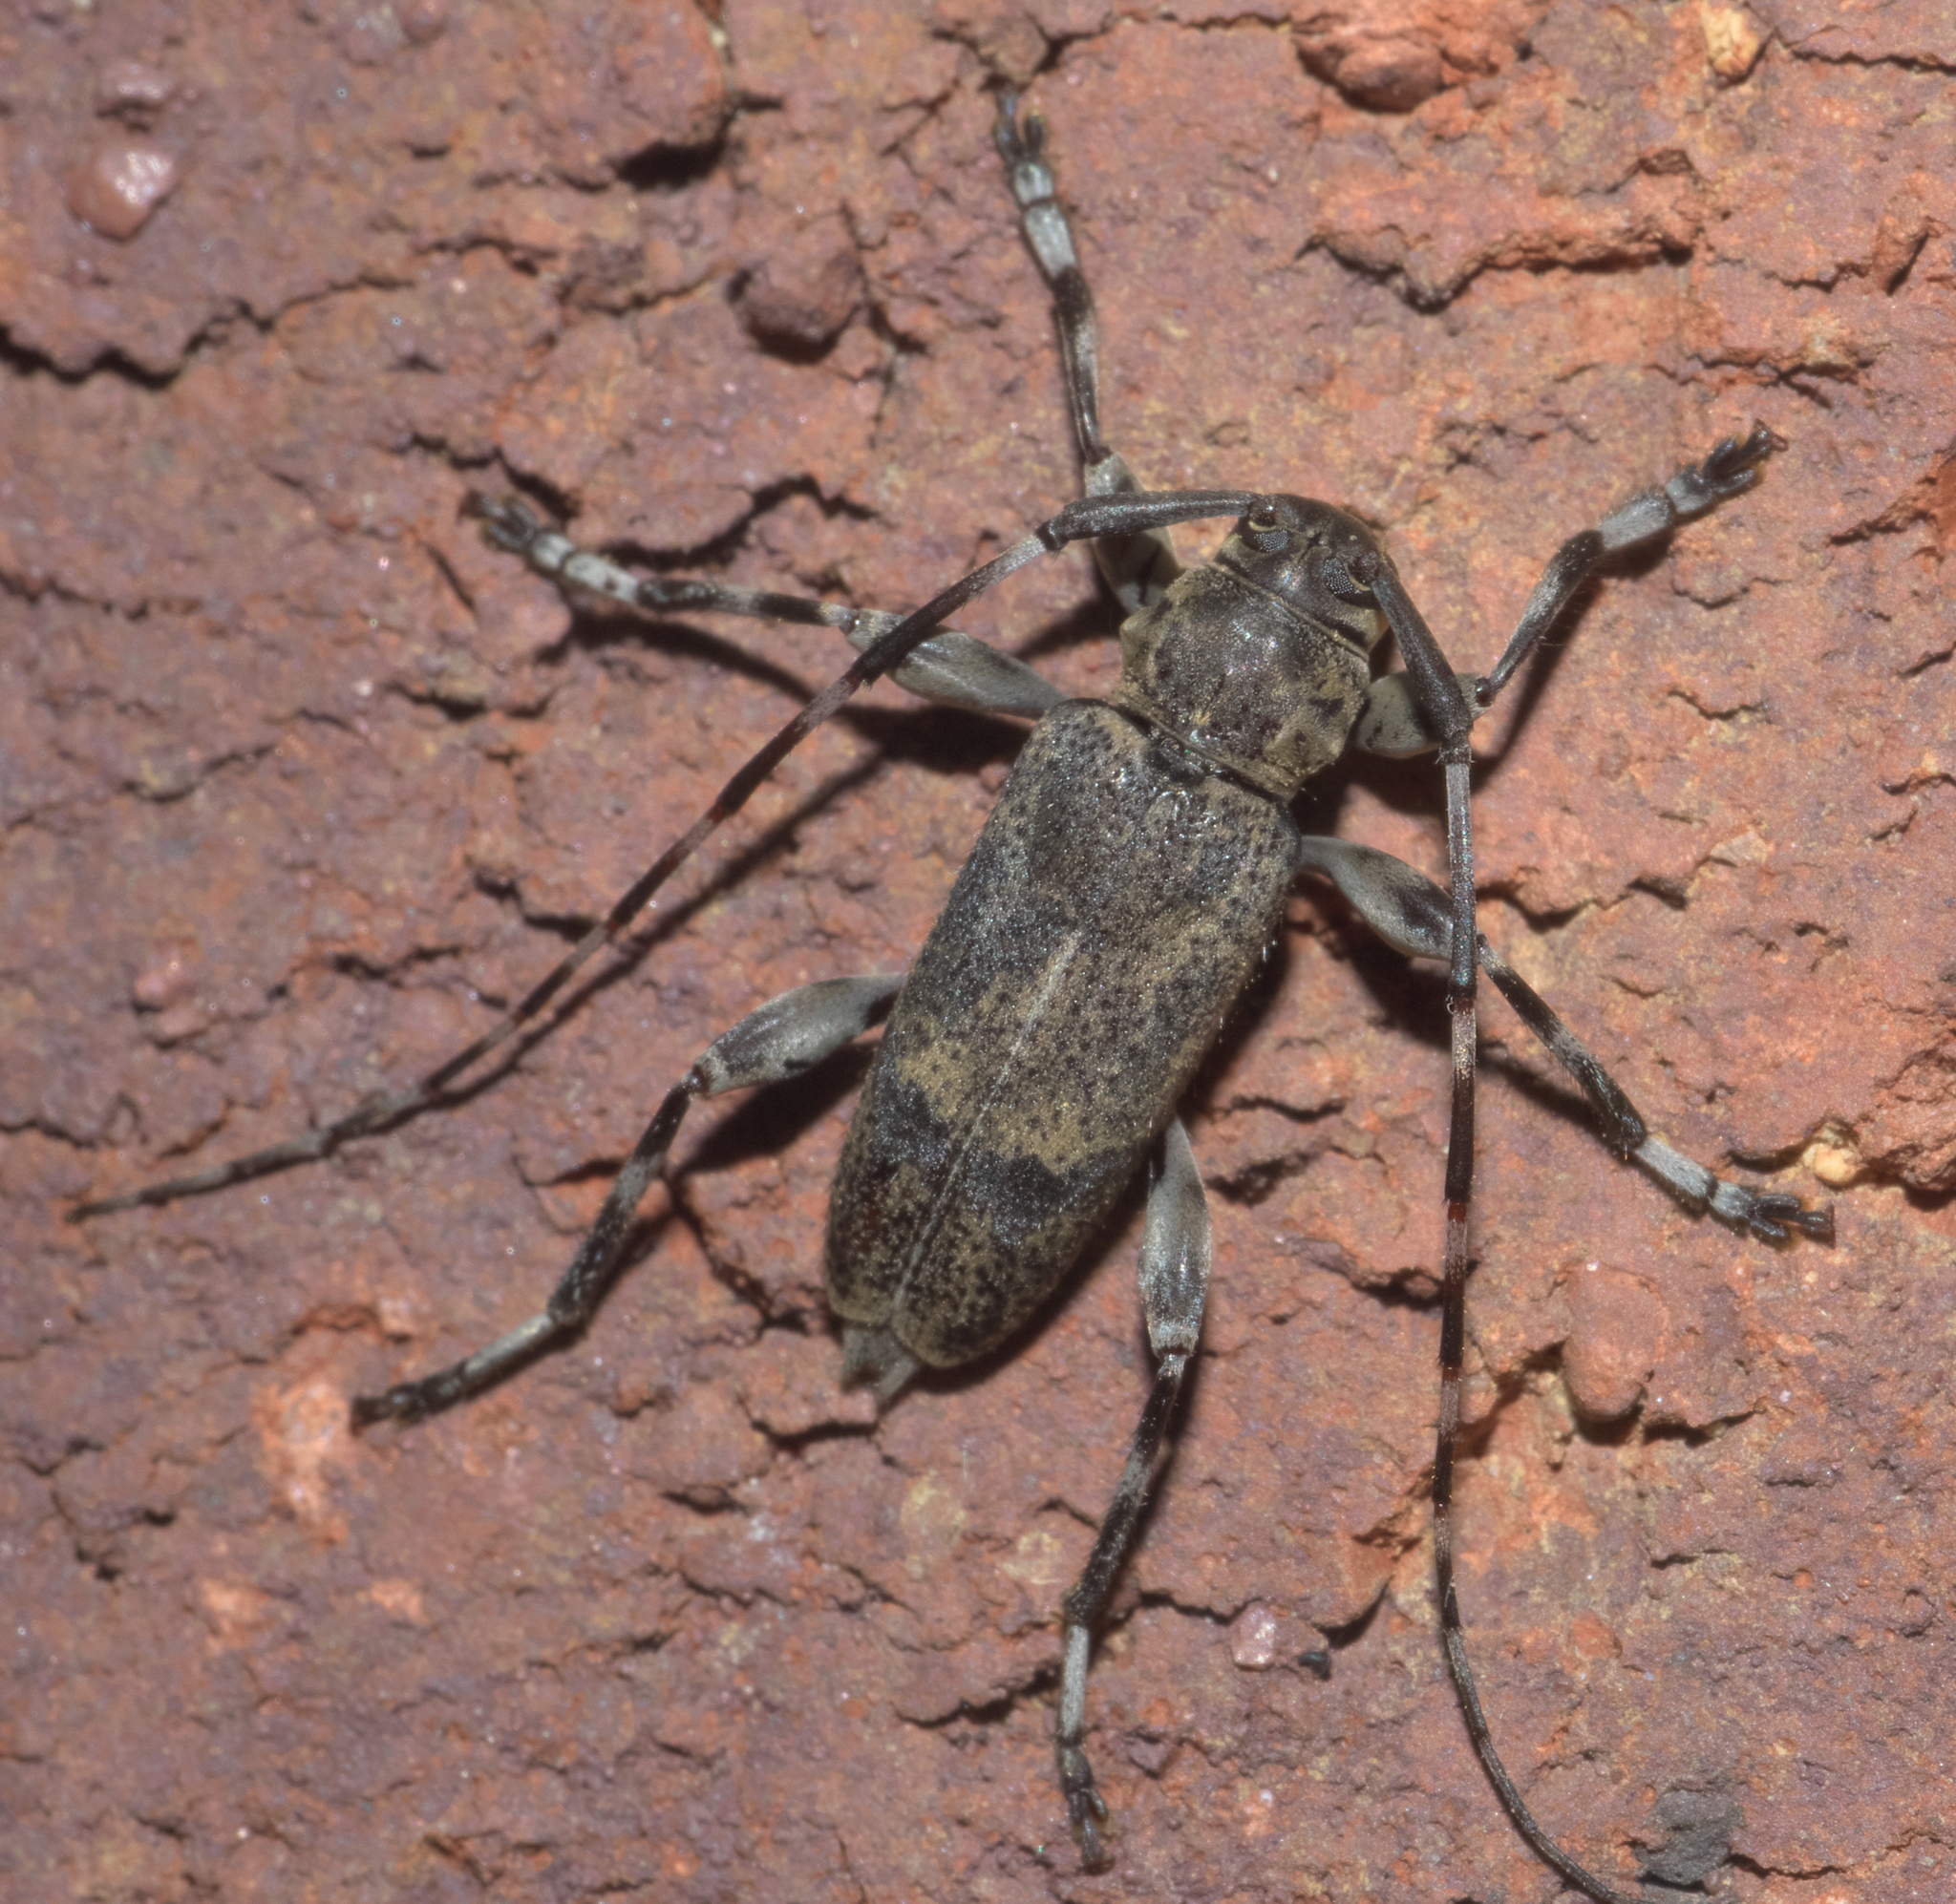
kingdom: Animalia
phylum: Arthropoda
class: Insecta
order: Coleoptera
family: Cerambycidae
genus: Graphisurus
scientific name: Graphisurus despectus
